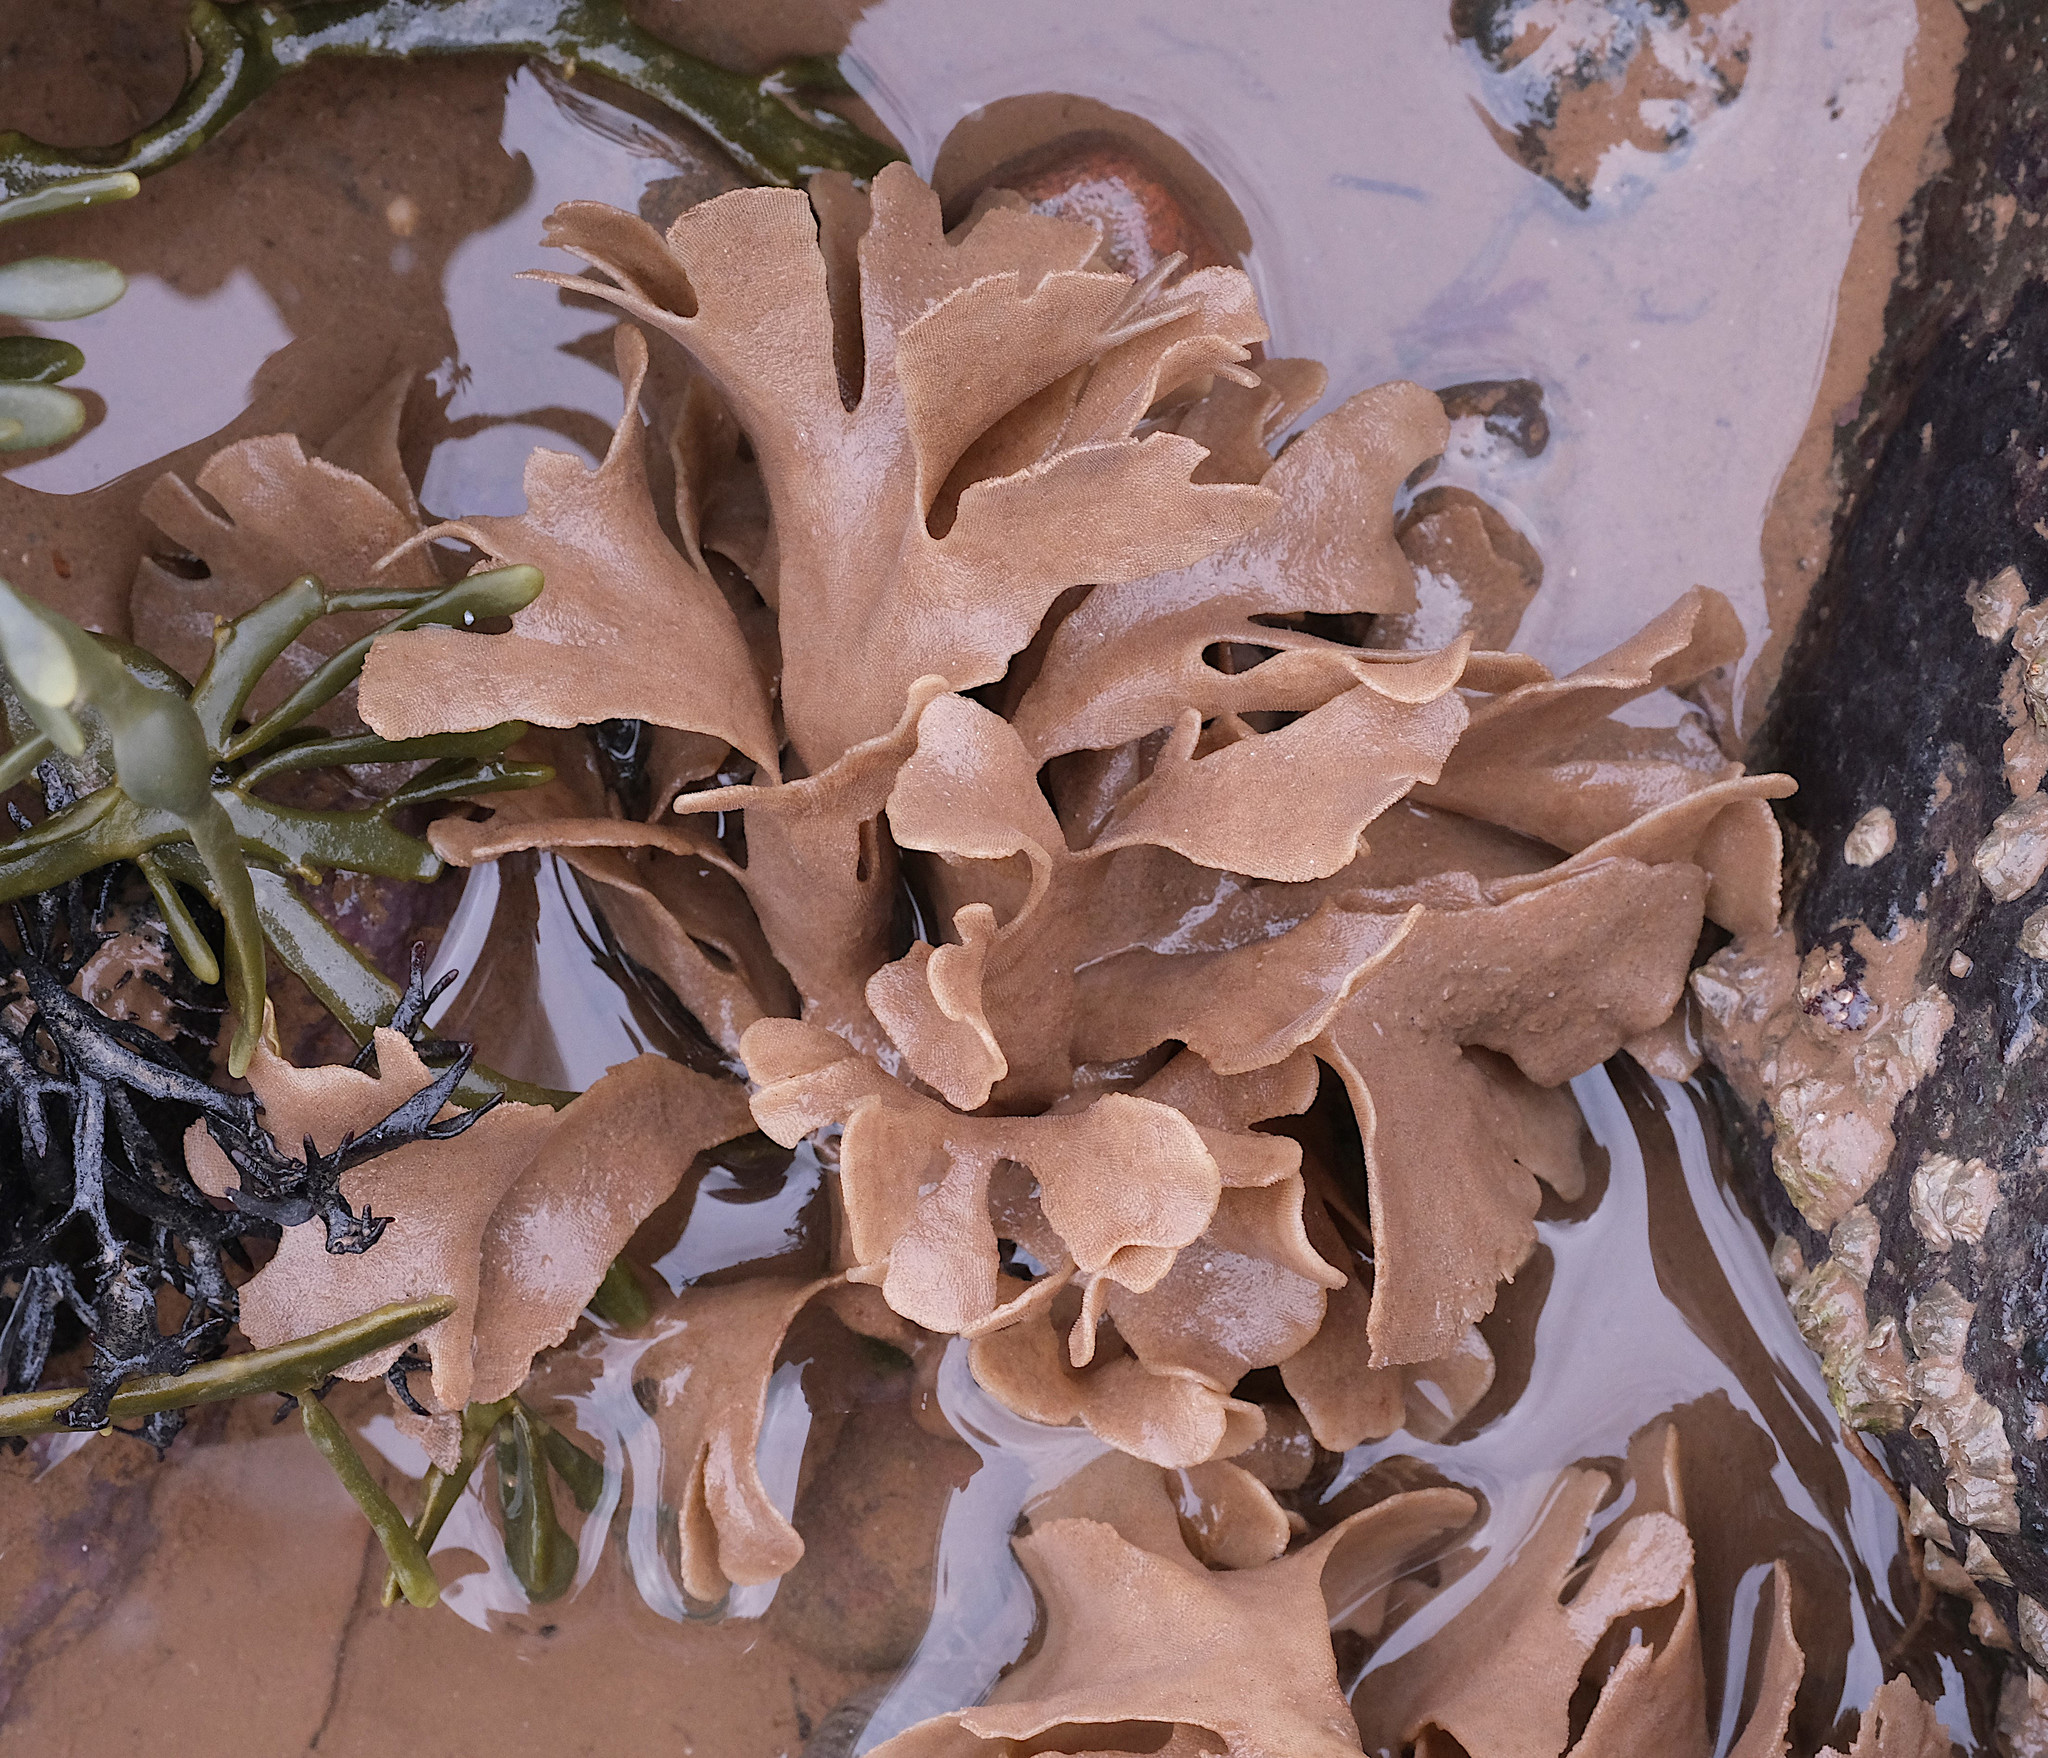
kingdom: Animalia
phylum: Bryozoa
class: Gymnolaemata
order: Cheilostomatida
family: Flustridae
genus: Flustra
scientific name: Flustra foliacea
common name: Hornwrack
